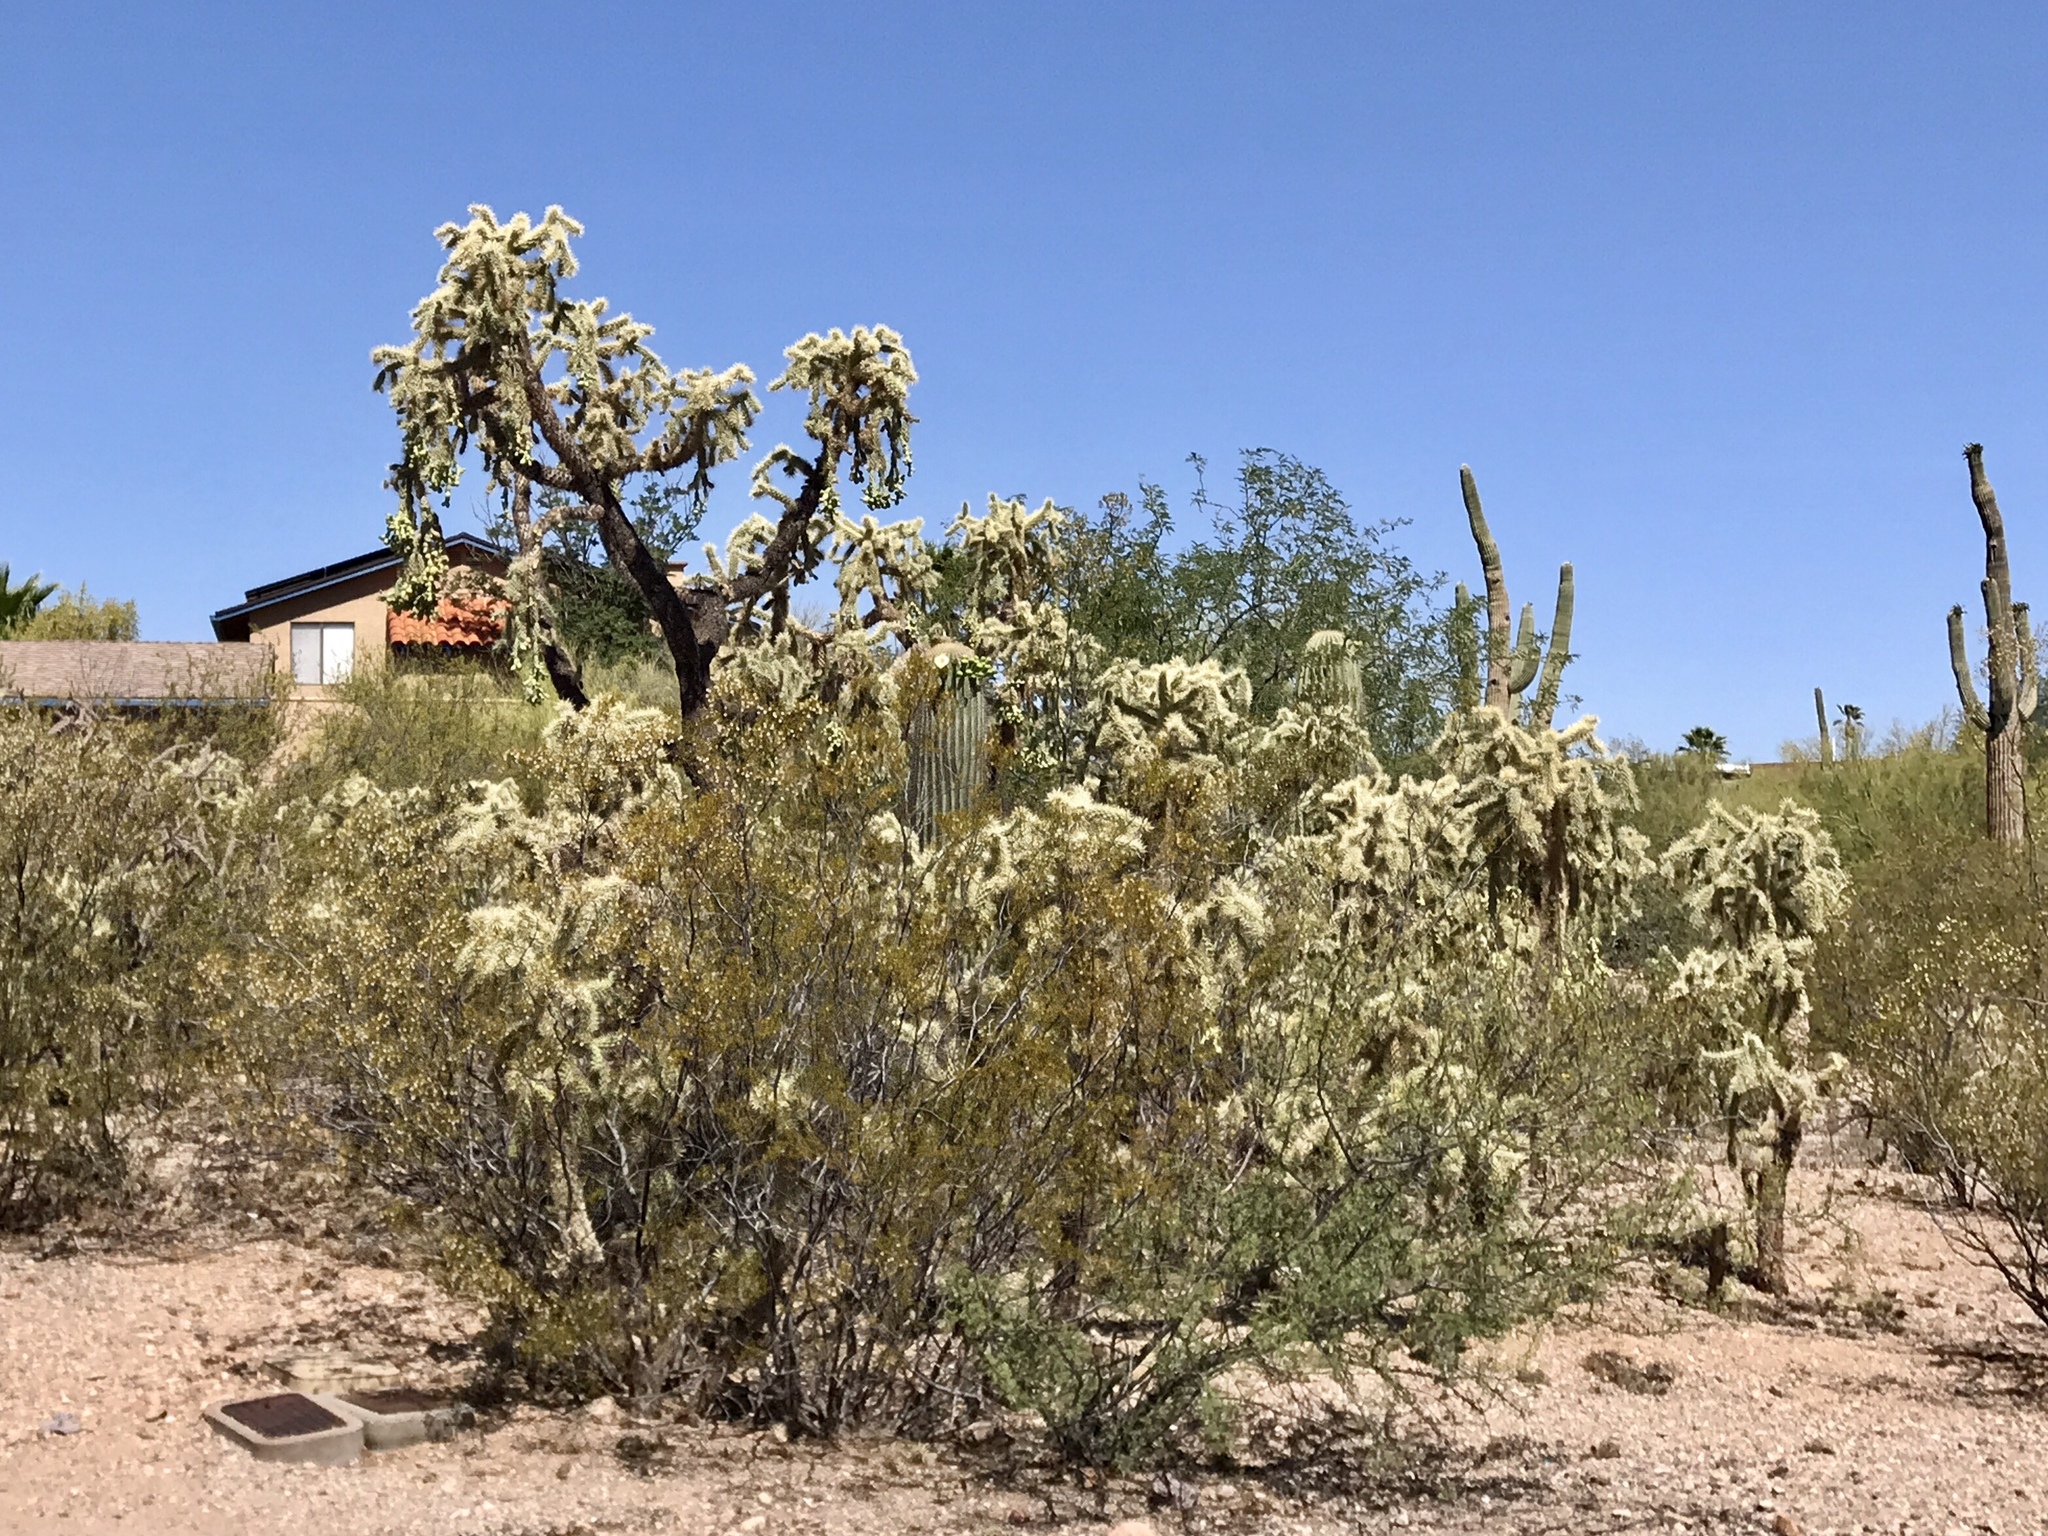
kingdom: Plantae
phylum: Tracheophyta
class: Magnoliopsida
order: Caryophyllales
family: Cactaceae
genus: Cylindropuntia
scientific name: Cylindropuntia fulgida
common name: Jumping cholla
